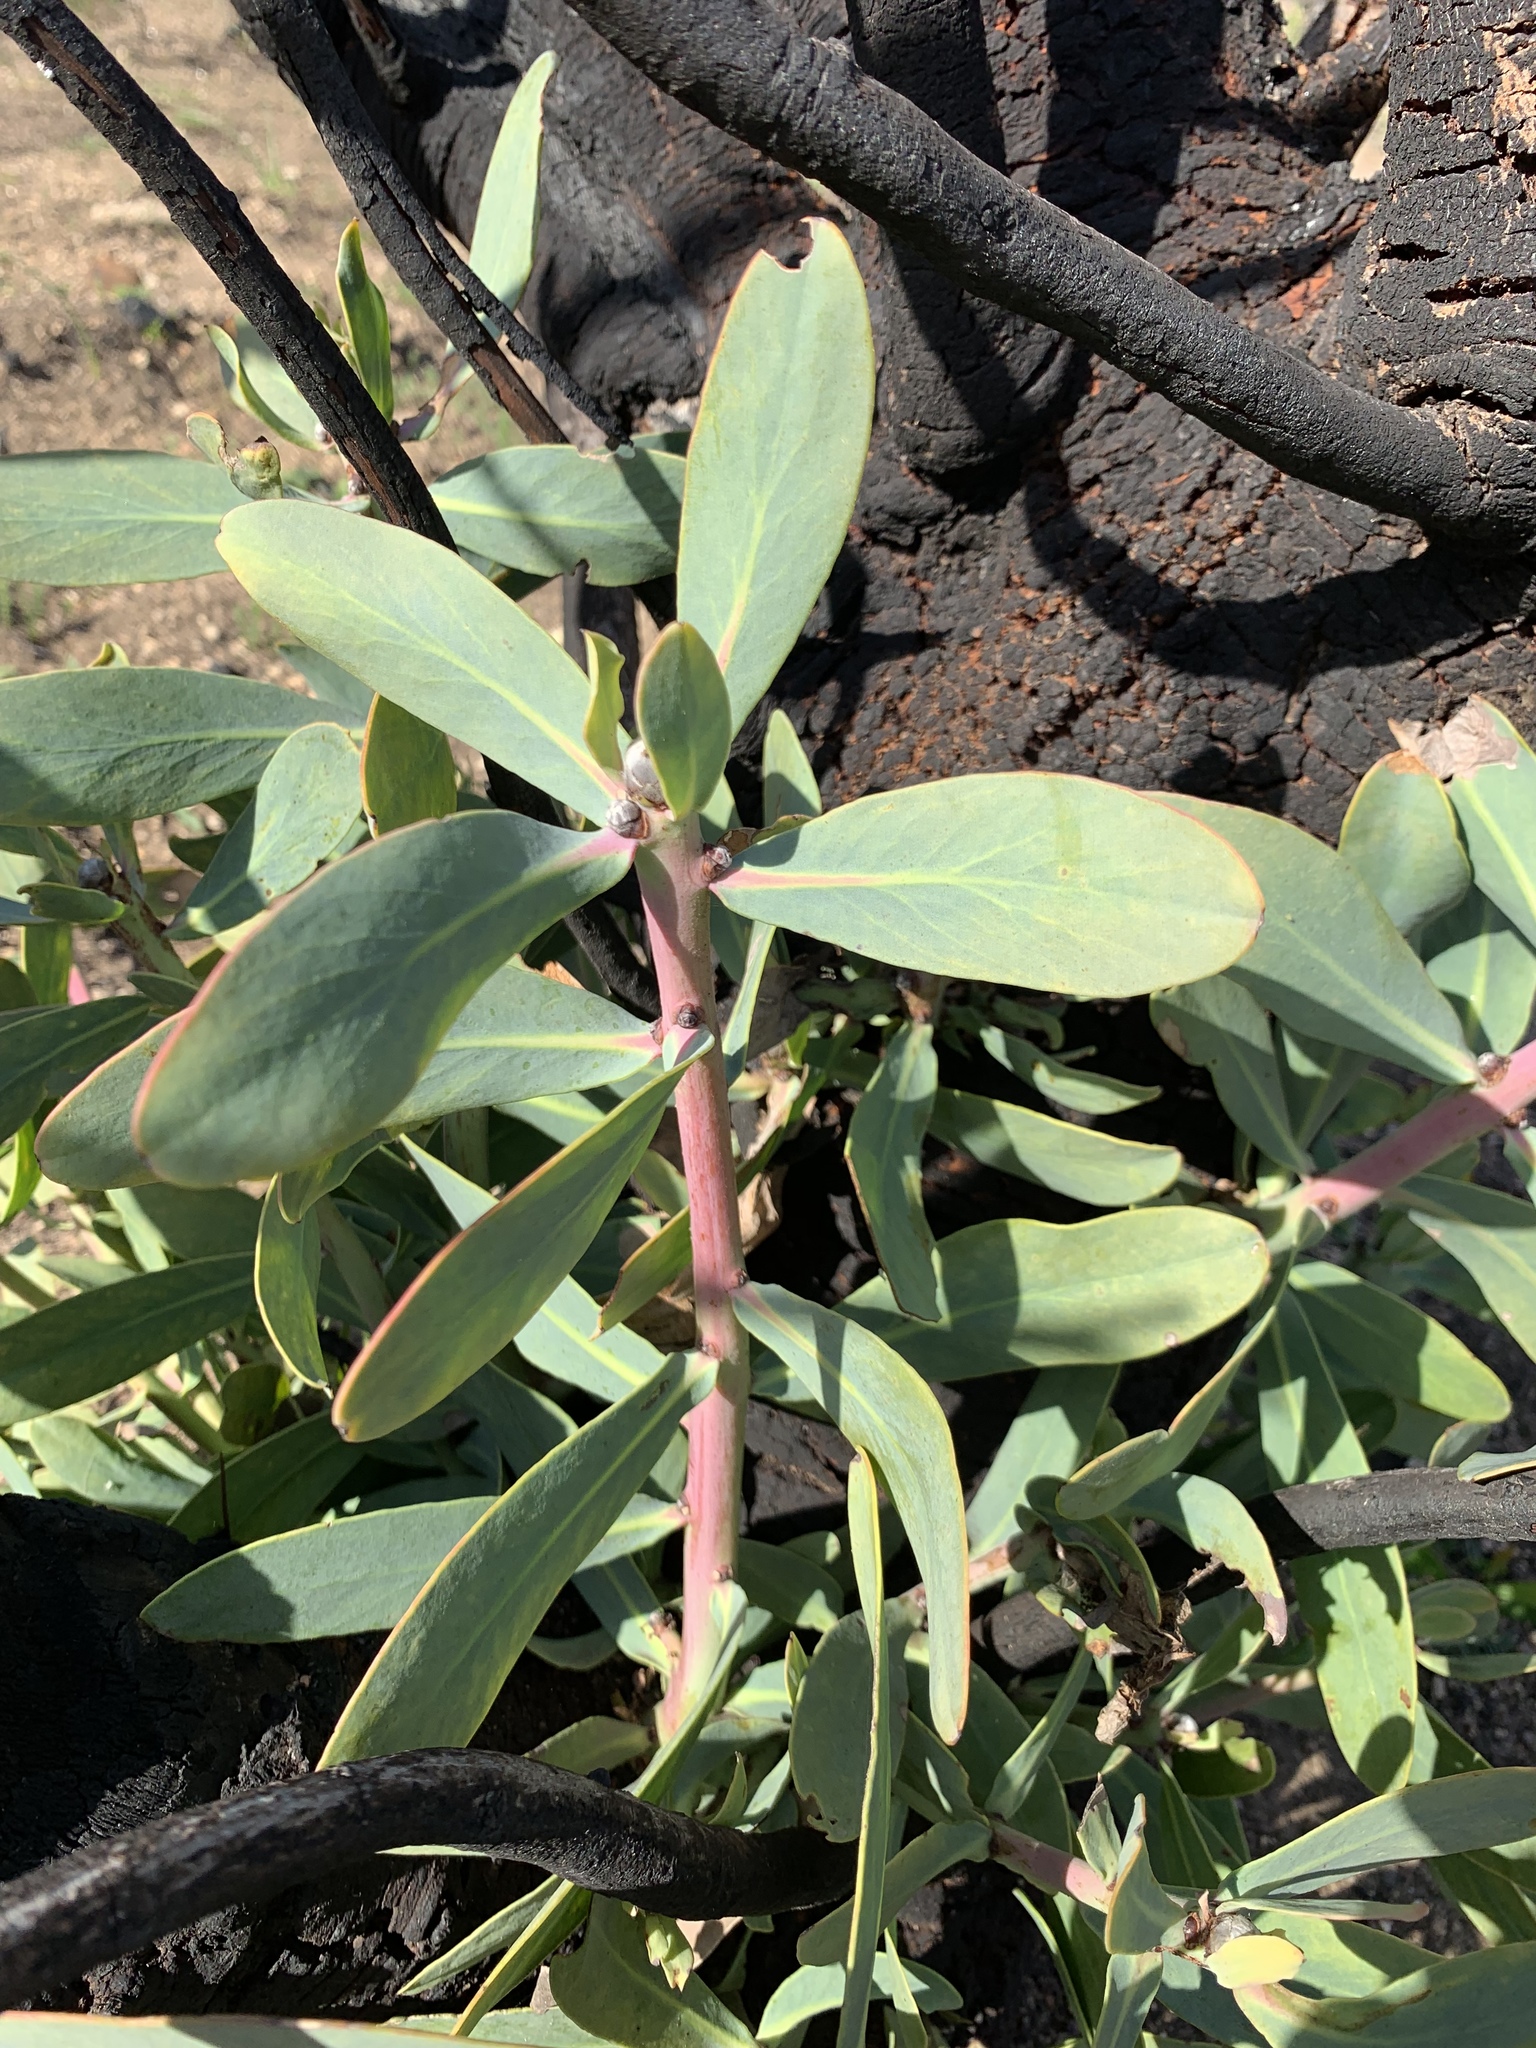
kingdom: Plantae
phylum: Tracheophyta
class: Magnoliopsida
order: Proteales
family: Proteaceae
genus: Protea
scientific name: Protea nitida
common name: Tree protea
